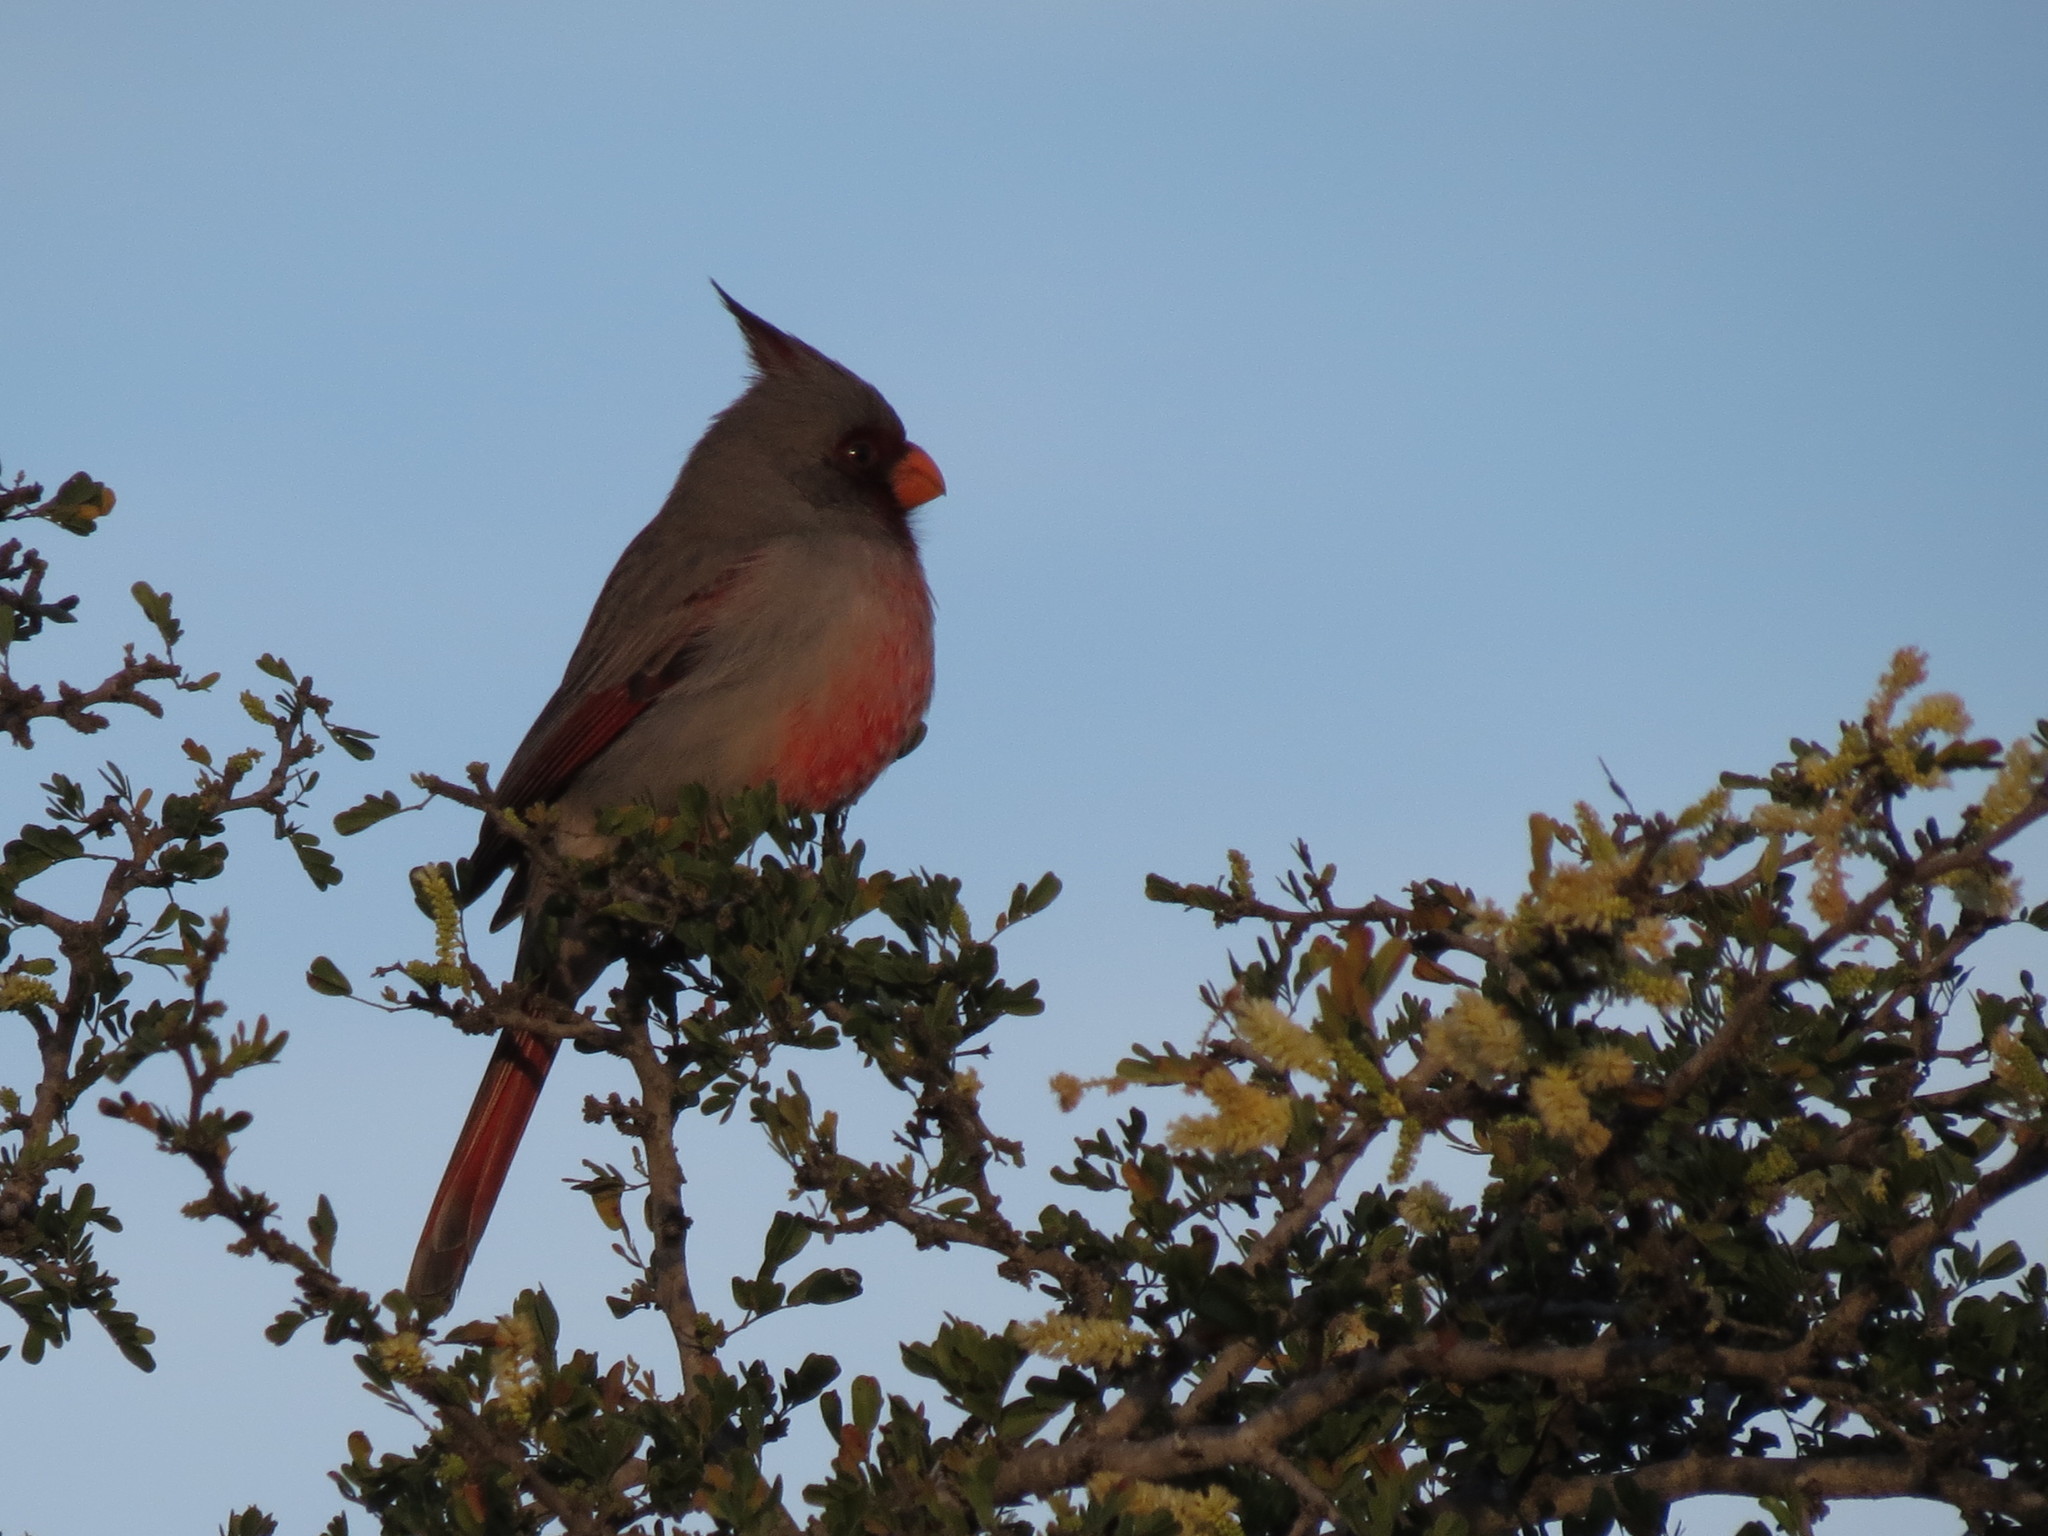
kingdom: Animalia
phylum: Chordata
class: Aves
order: Passeriformes
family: Cardinalidae
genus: Cardinalis
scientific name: Cardinalis sinuatus
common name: Pyrrhuloxia
